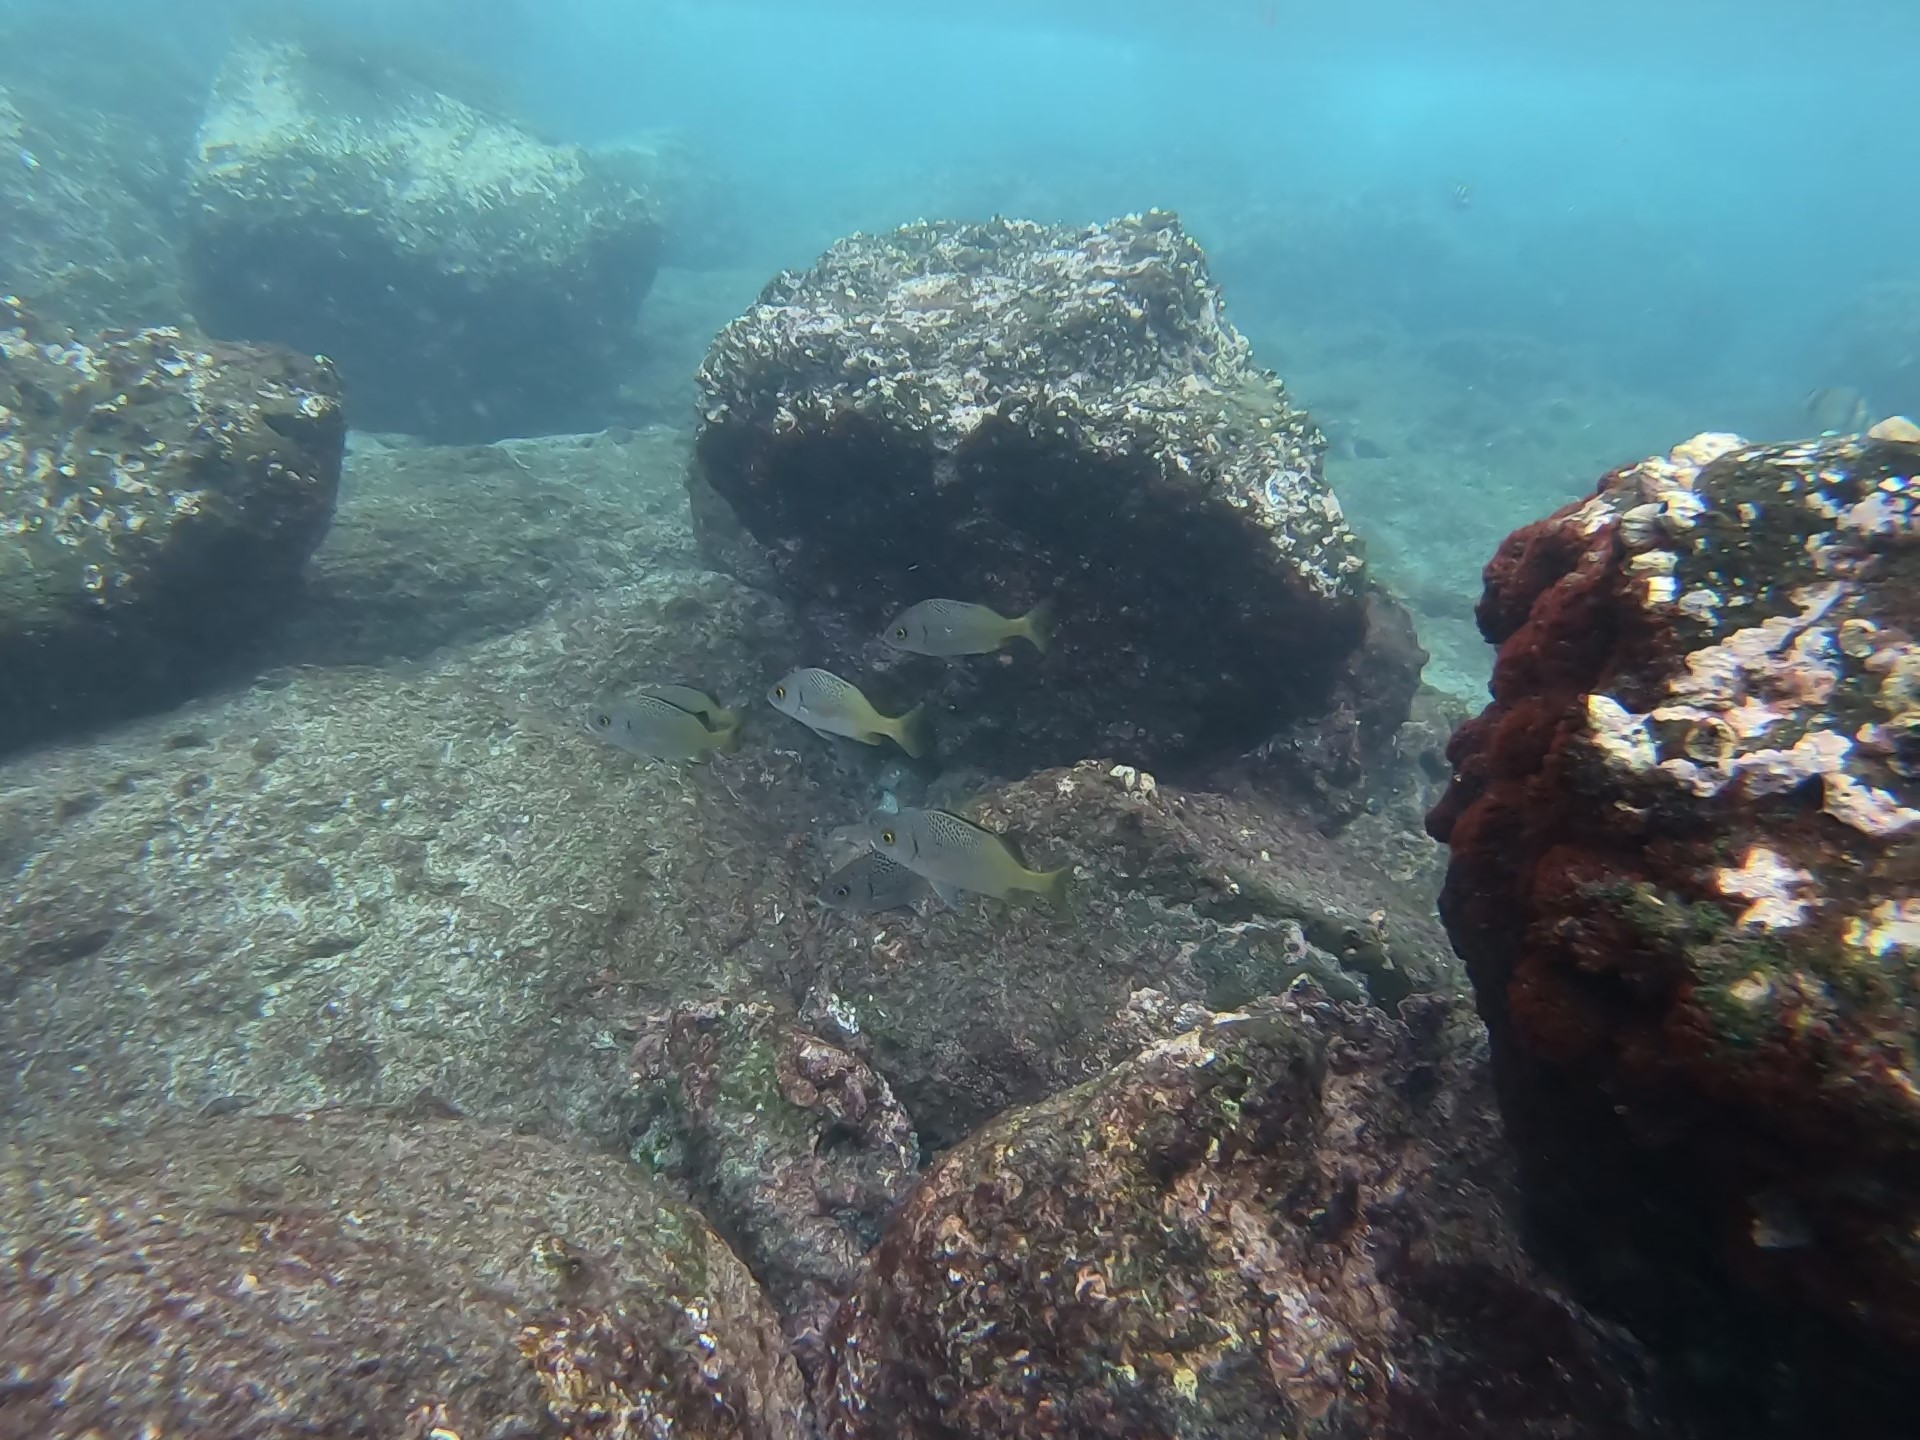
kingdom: Animalia
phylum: Chordata
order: Perciformes
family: Haemulidae
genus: Anisotremus
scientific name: Anisotremus interruptus
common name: Burrito grunt
